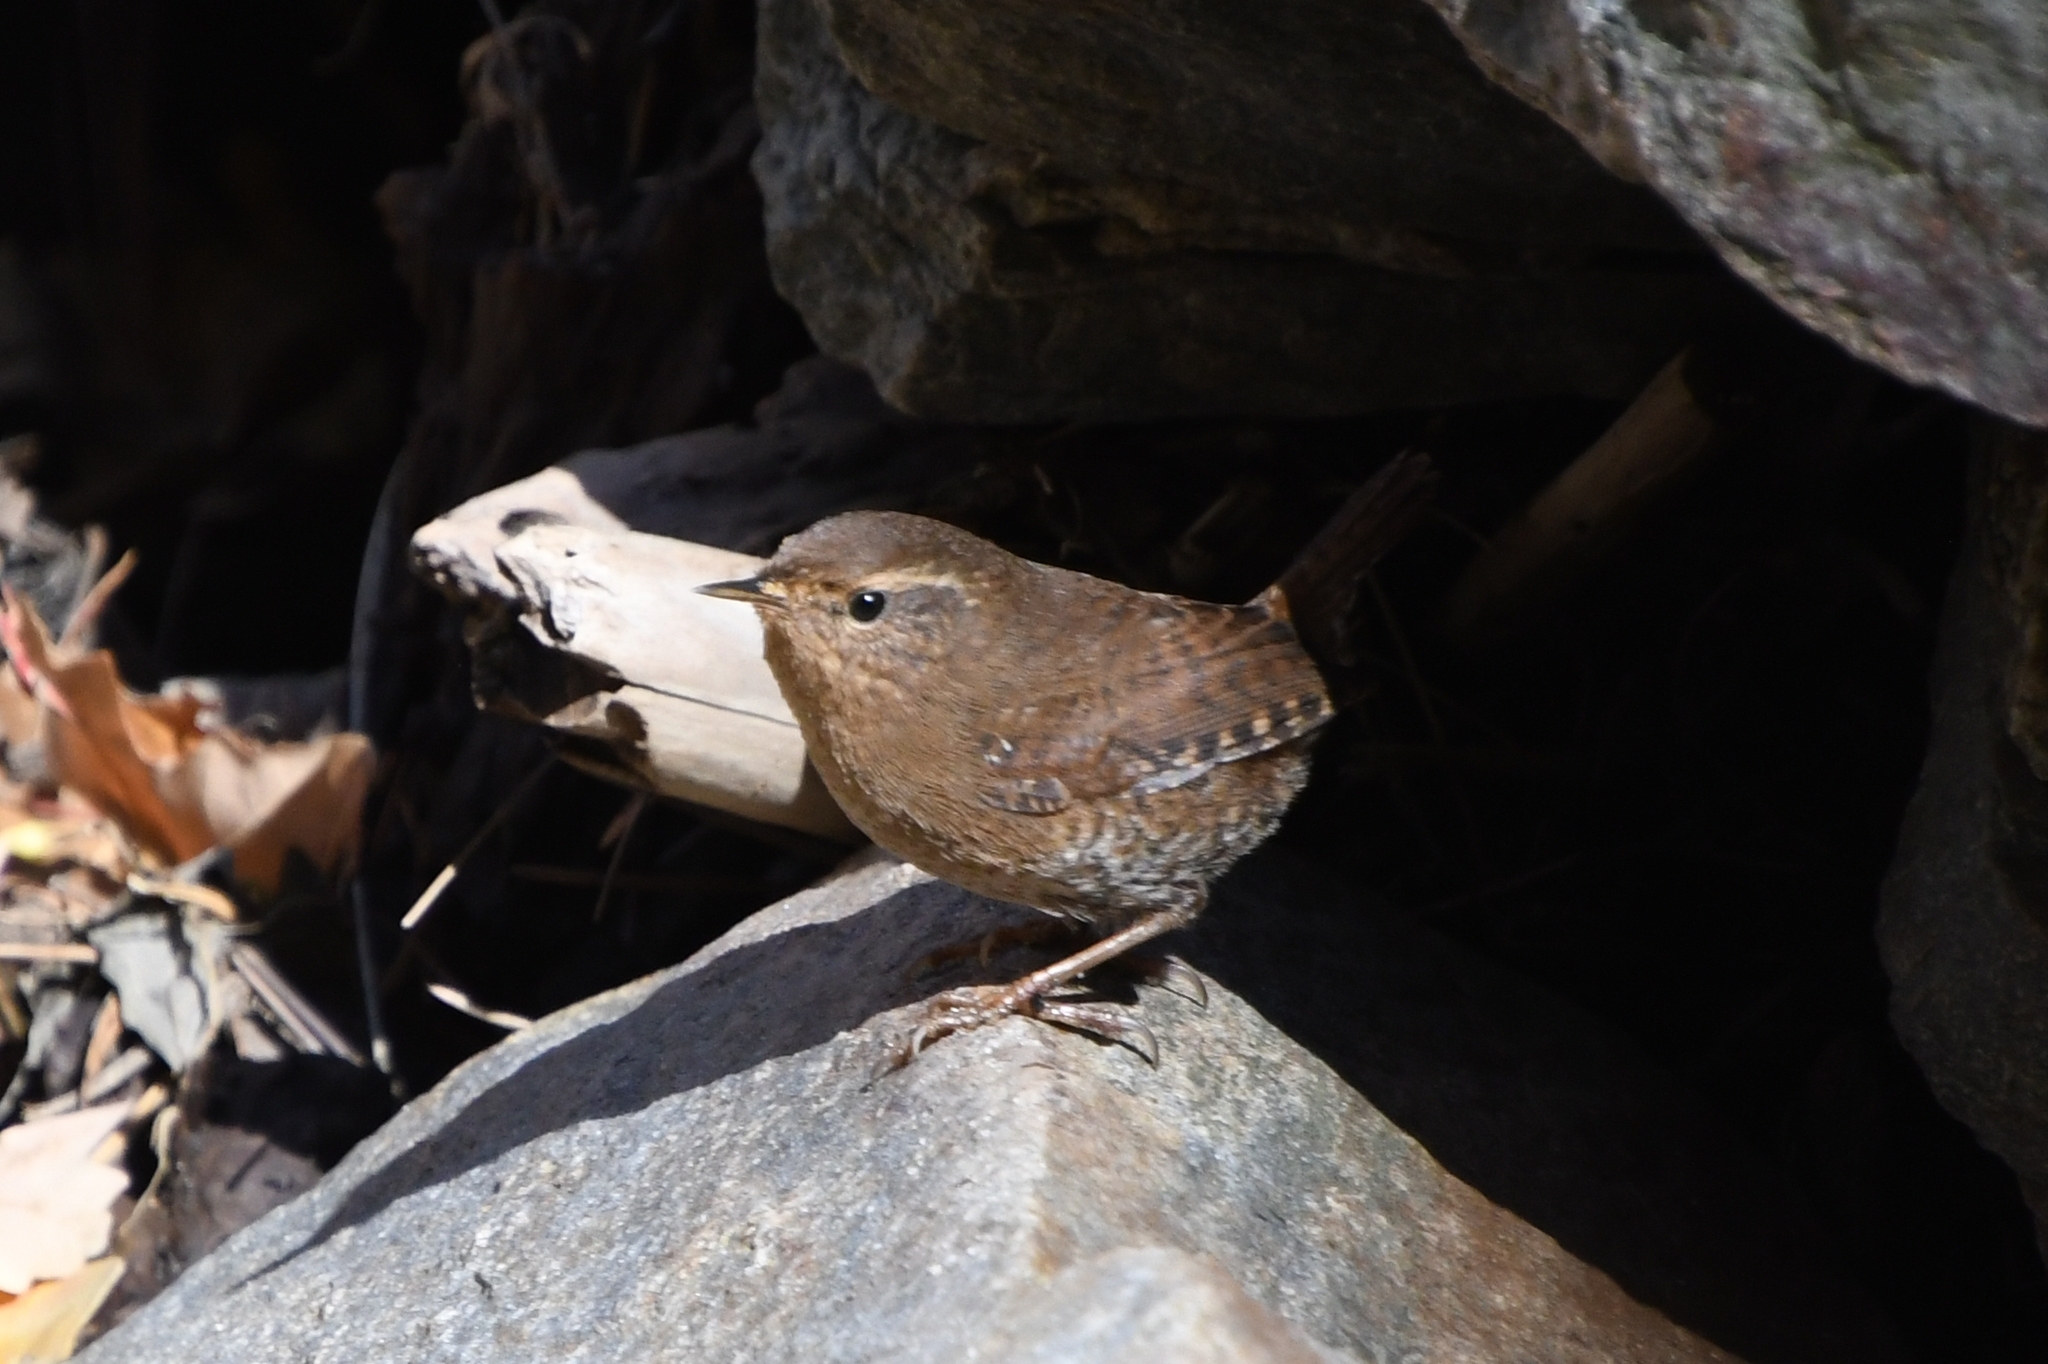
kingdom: Animalia
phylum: Chordata
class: Aves
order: Passeriformes
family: Troglodytidae
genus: Troglodytes
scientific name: Troglodytes pacificus
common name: Pacific wren
